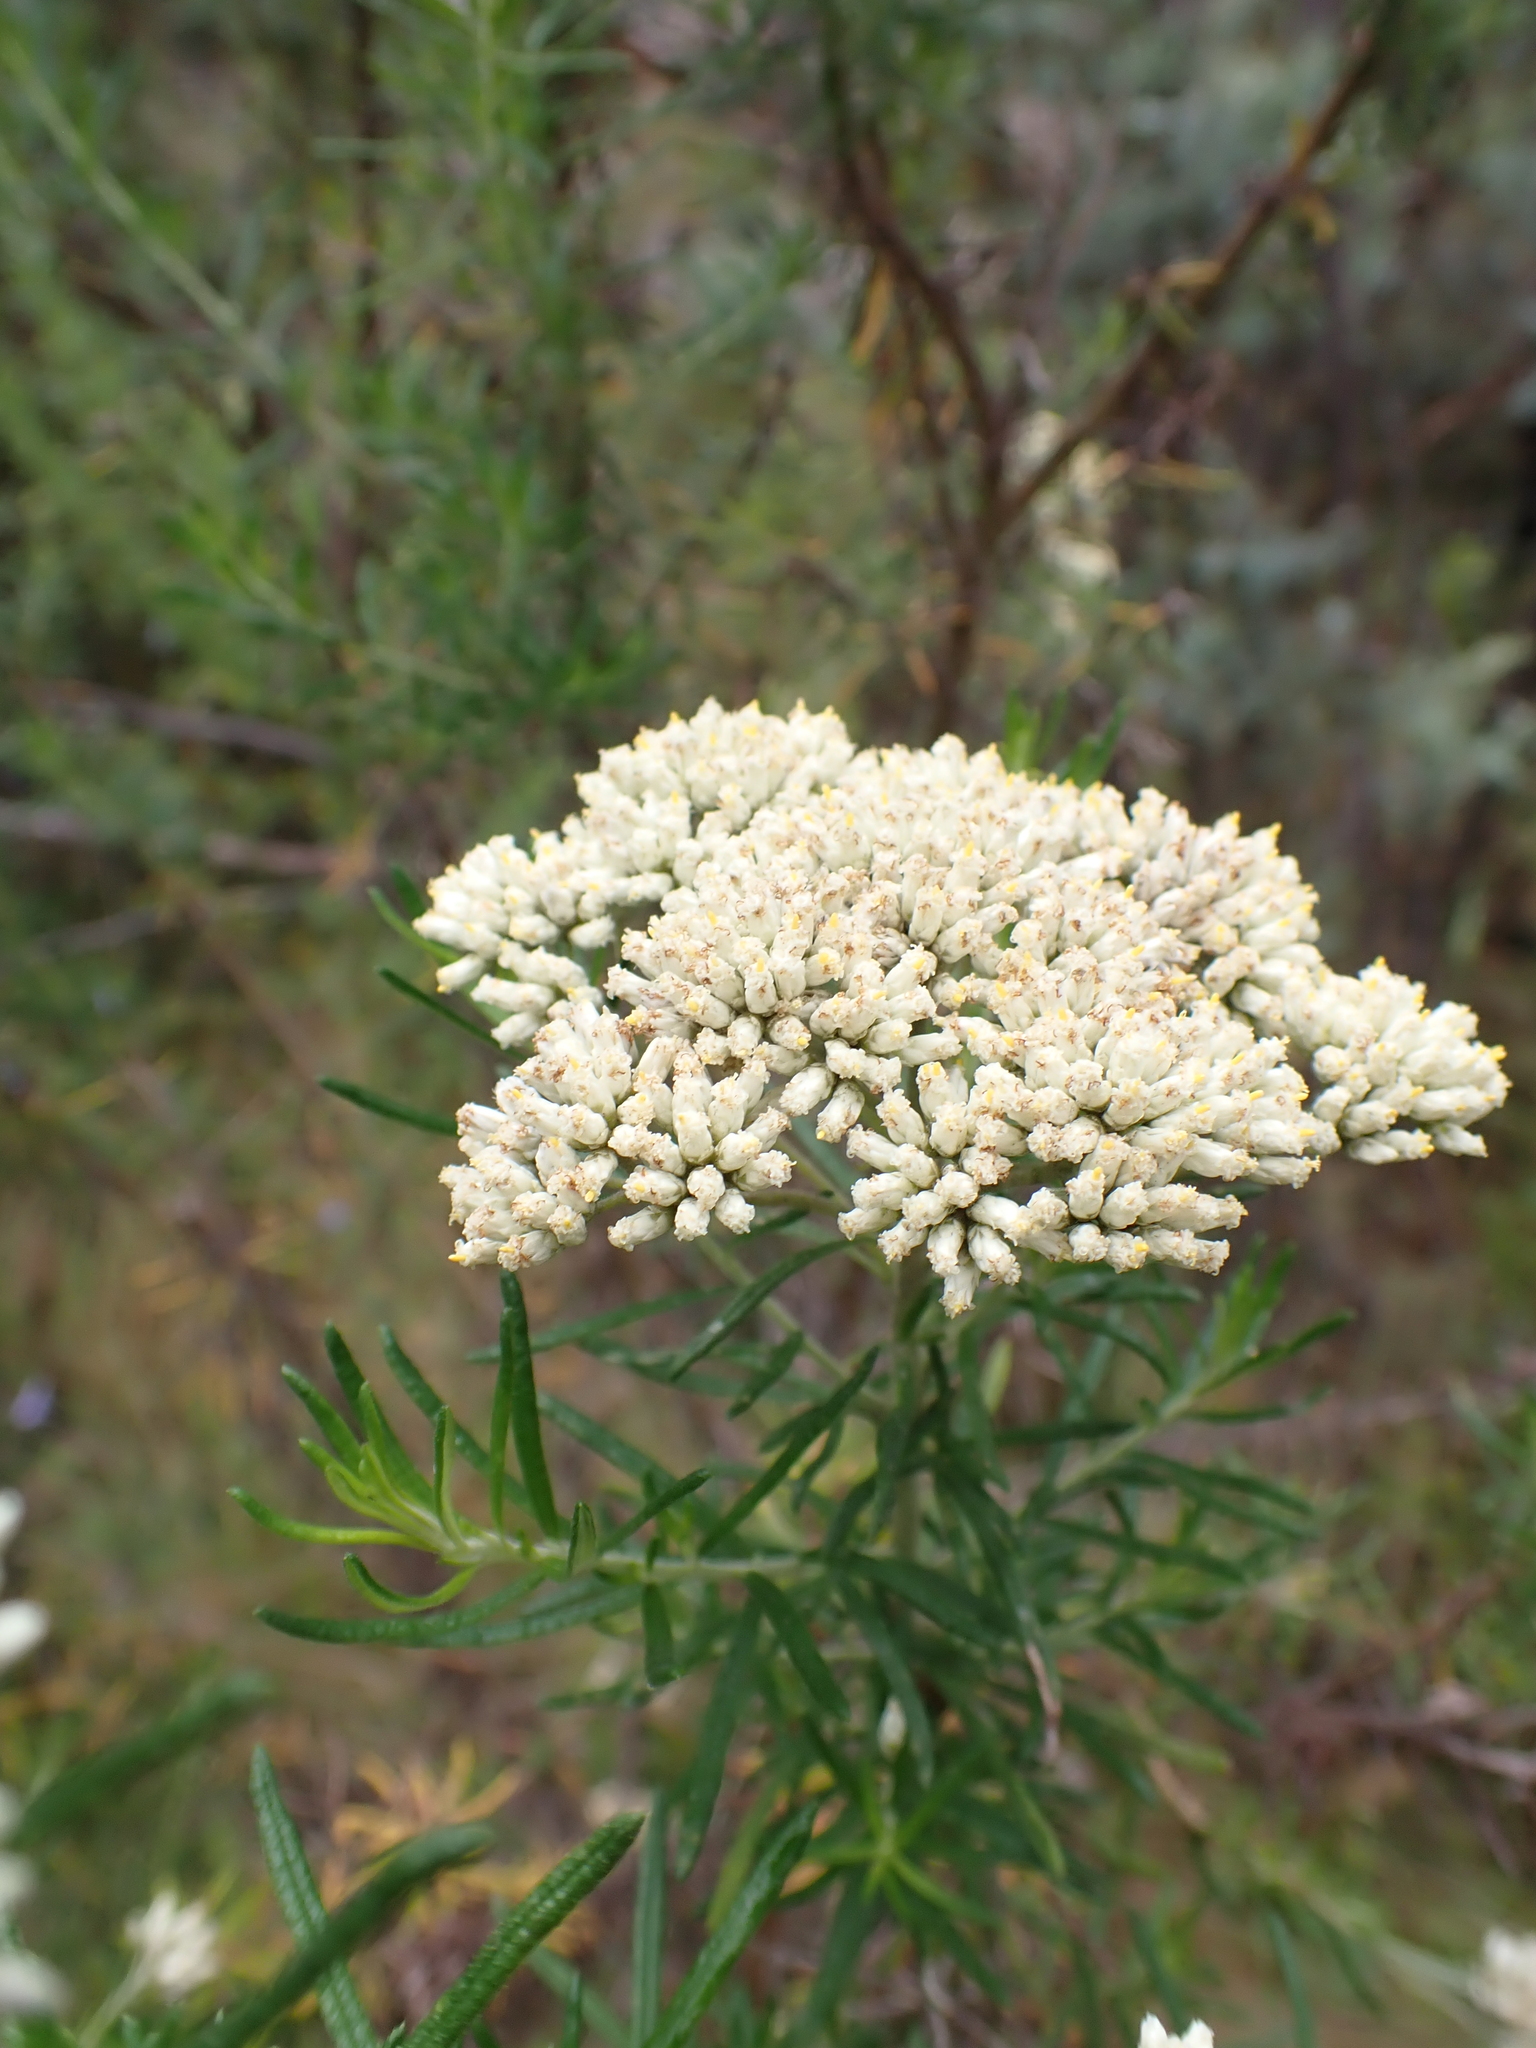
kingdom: Plantae
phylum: Tracheophyta
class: Magnoliopsida
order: Asterales
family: Asteraceae
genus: Cassinia
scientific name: Cassinia aculeata
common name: Australian tauhinu
